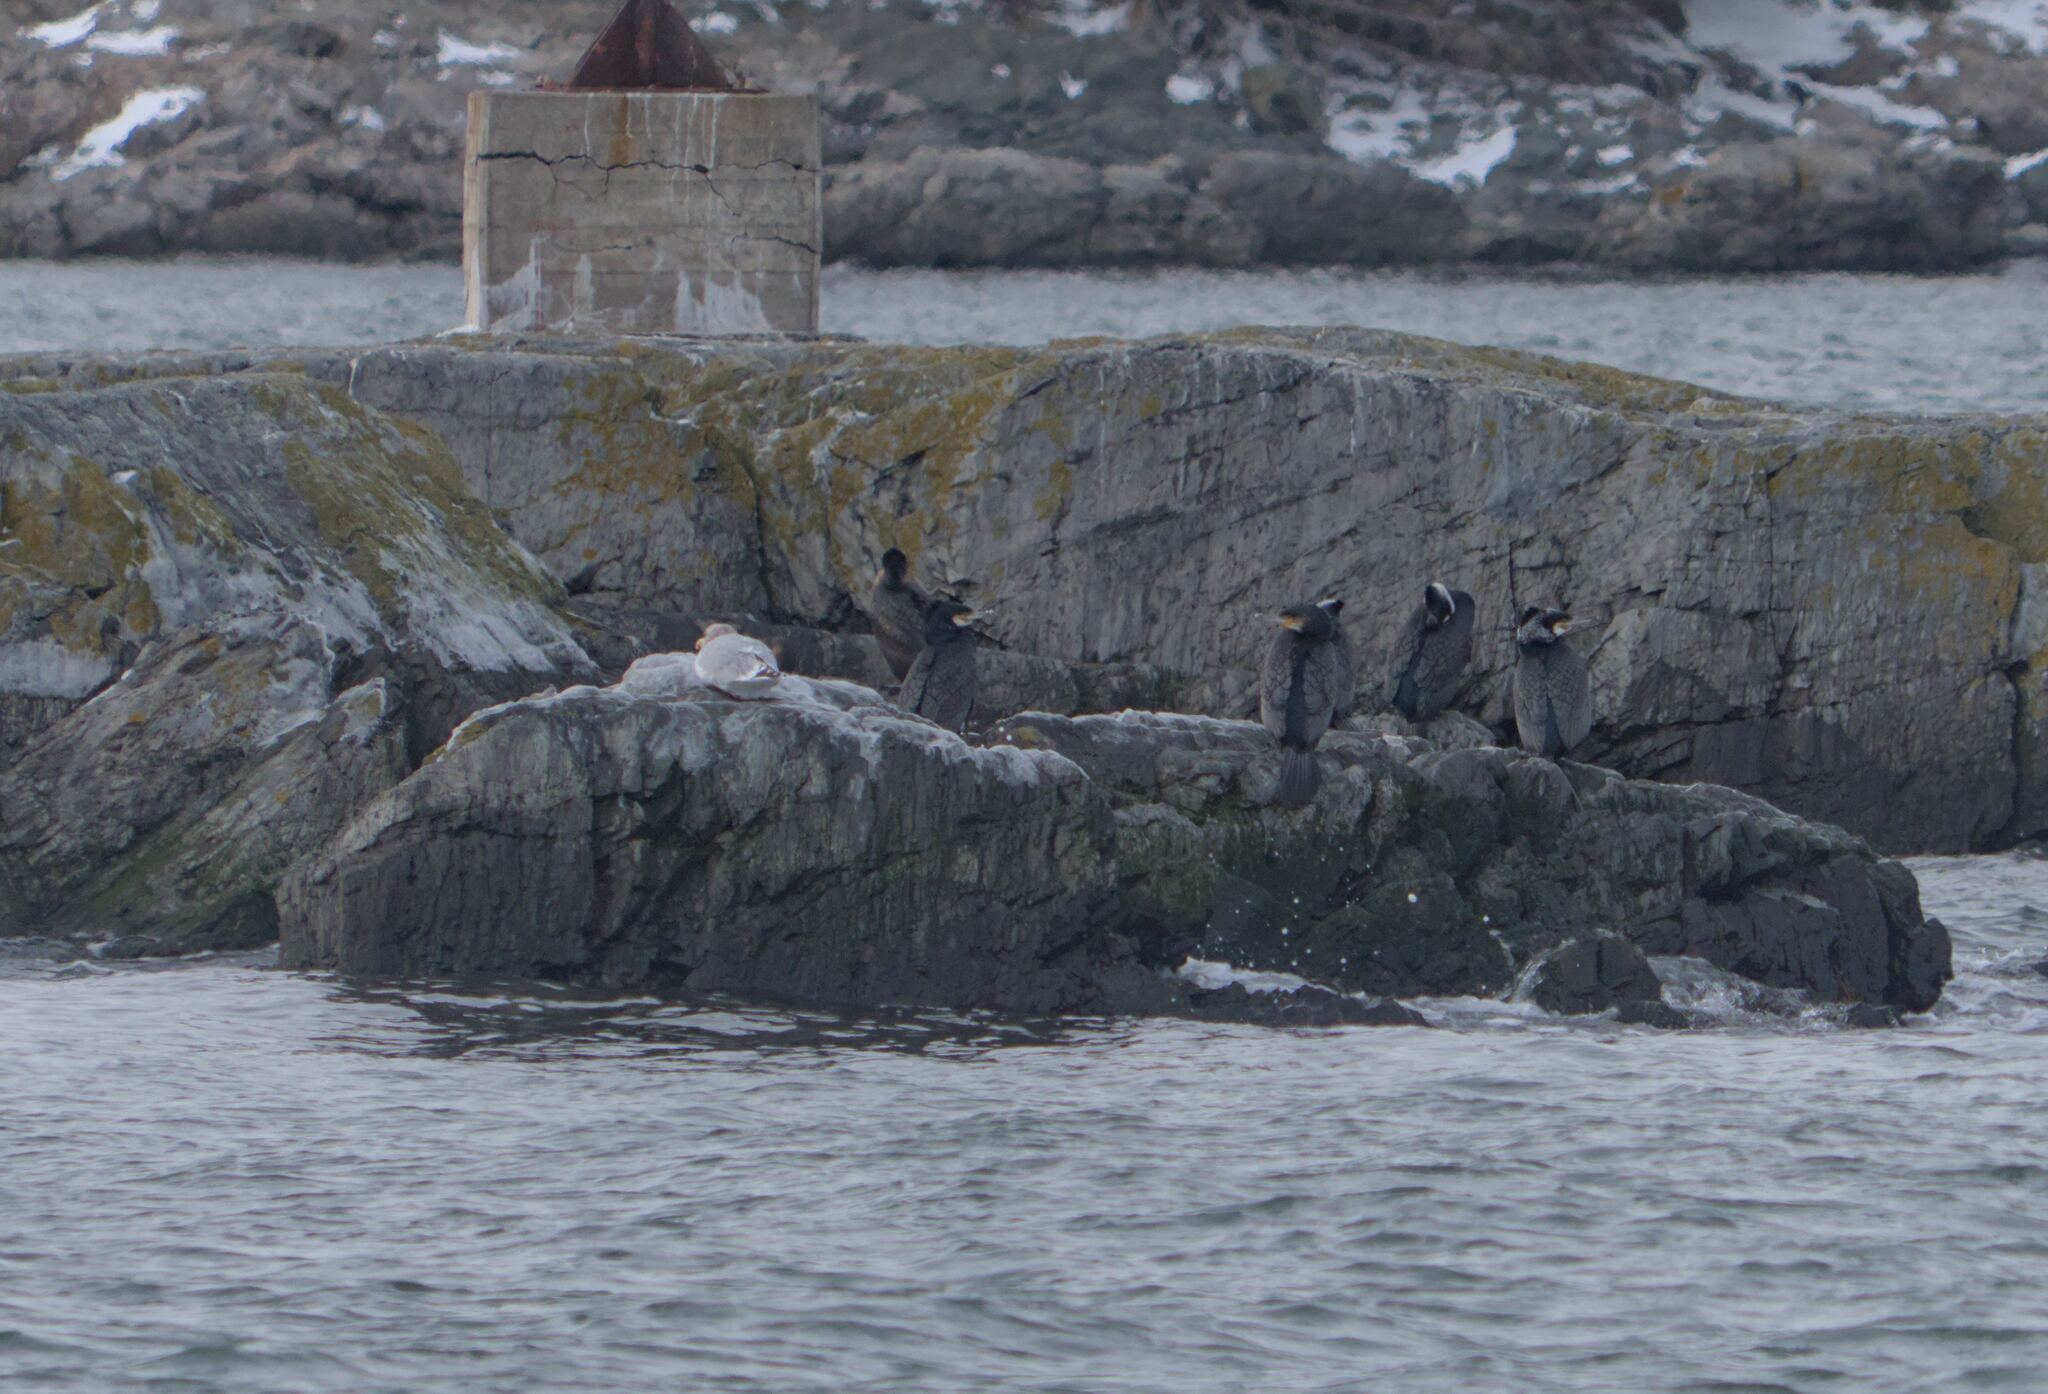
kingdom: Animalia
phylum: Chordata
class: Aves
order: Suliformes
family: Phalacrocoracidae
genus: Phalacrocorax
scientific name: Phalacrocorax carbo
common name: Great cormorant
